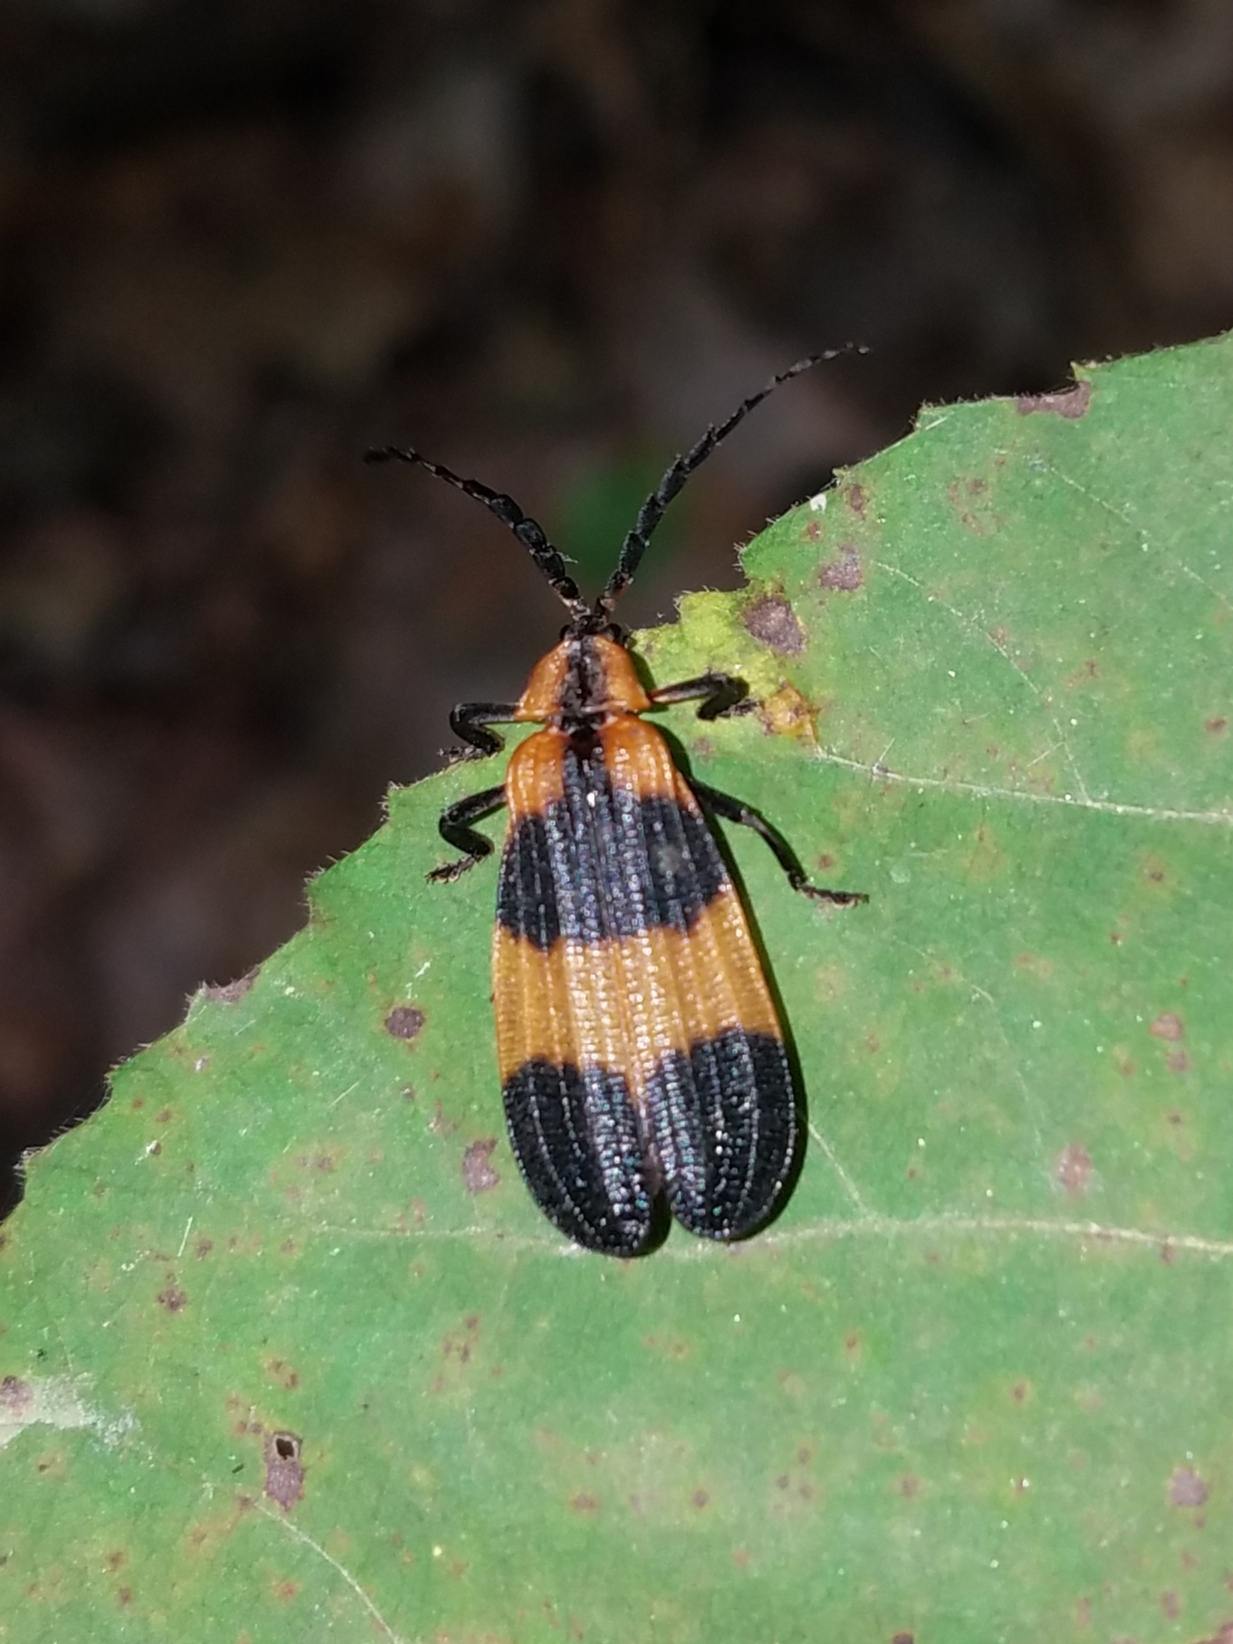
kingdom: Animalia
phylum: Arthropoda
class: Insecta
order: Coleoptera
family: Lycidae
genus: Calopteron
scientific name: Calopteron reticulatum
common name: Banded net-winged beetle
